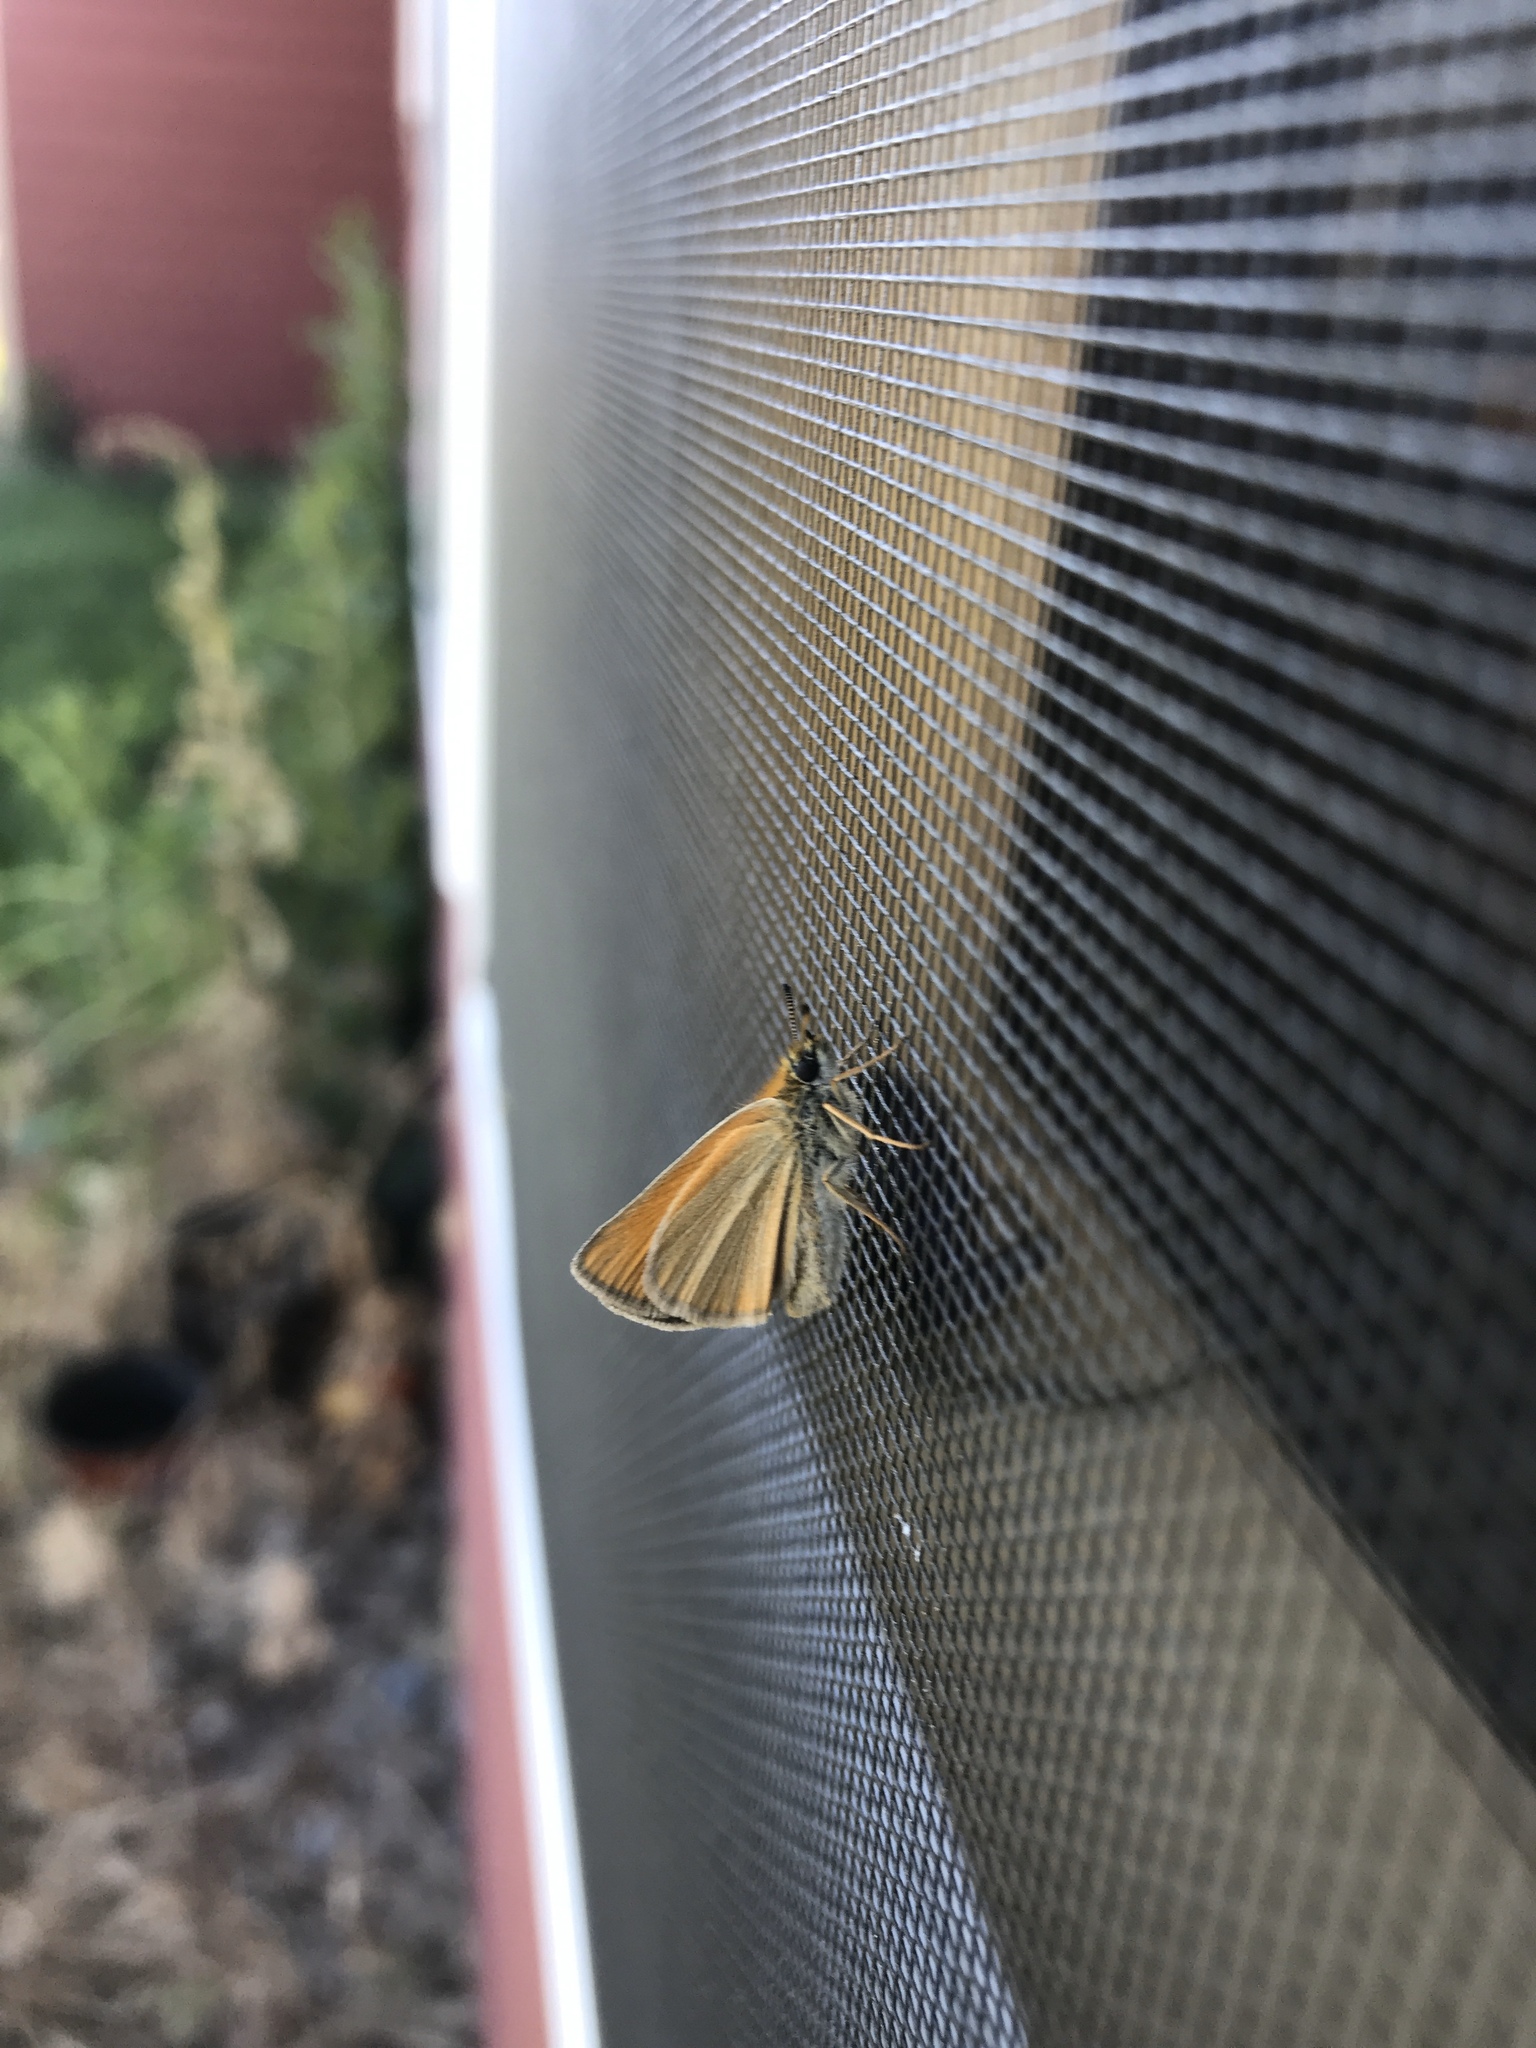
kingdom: Animalia
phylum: Arthropoda
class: Insecta
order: Lepidoptera
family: Hesperiidae
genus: Thymelicus
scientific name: Thymelicus lineola
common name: Essex skipper
